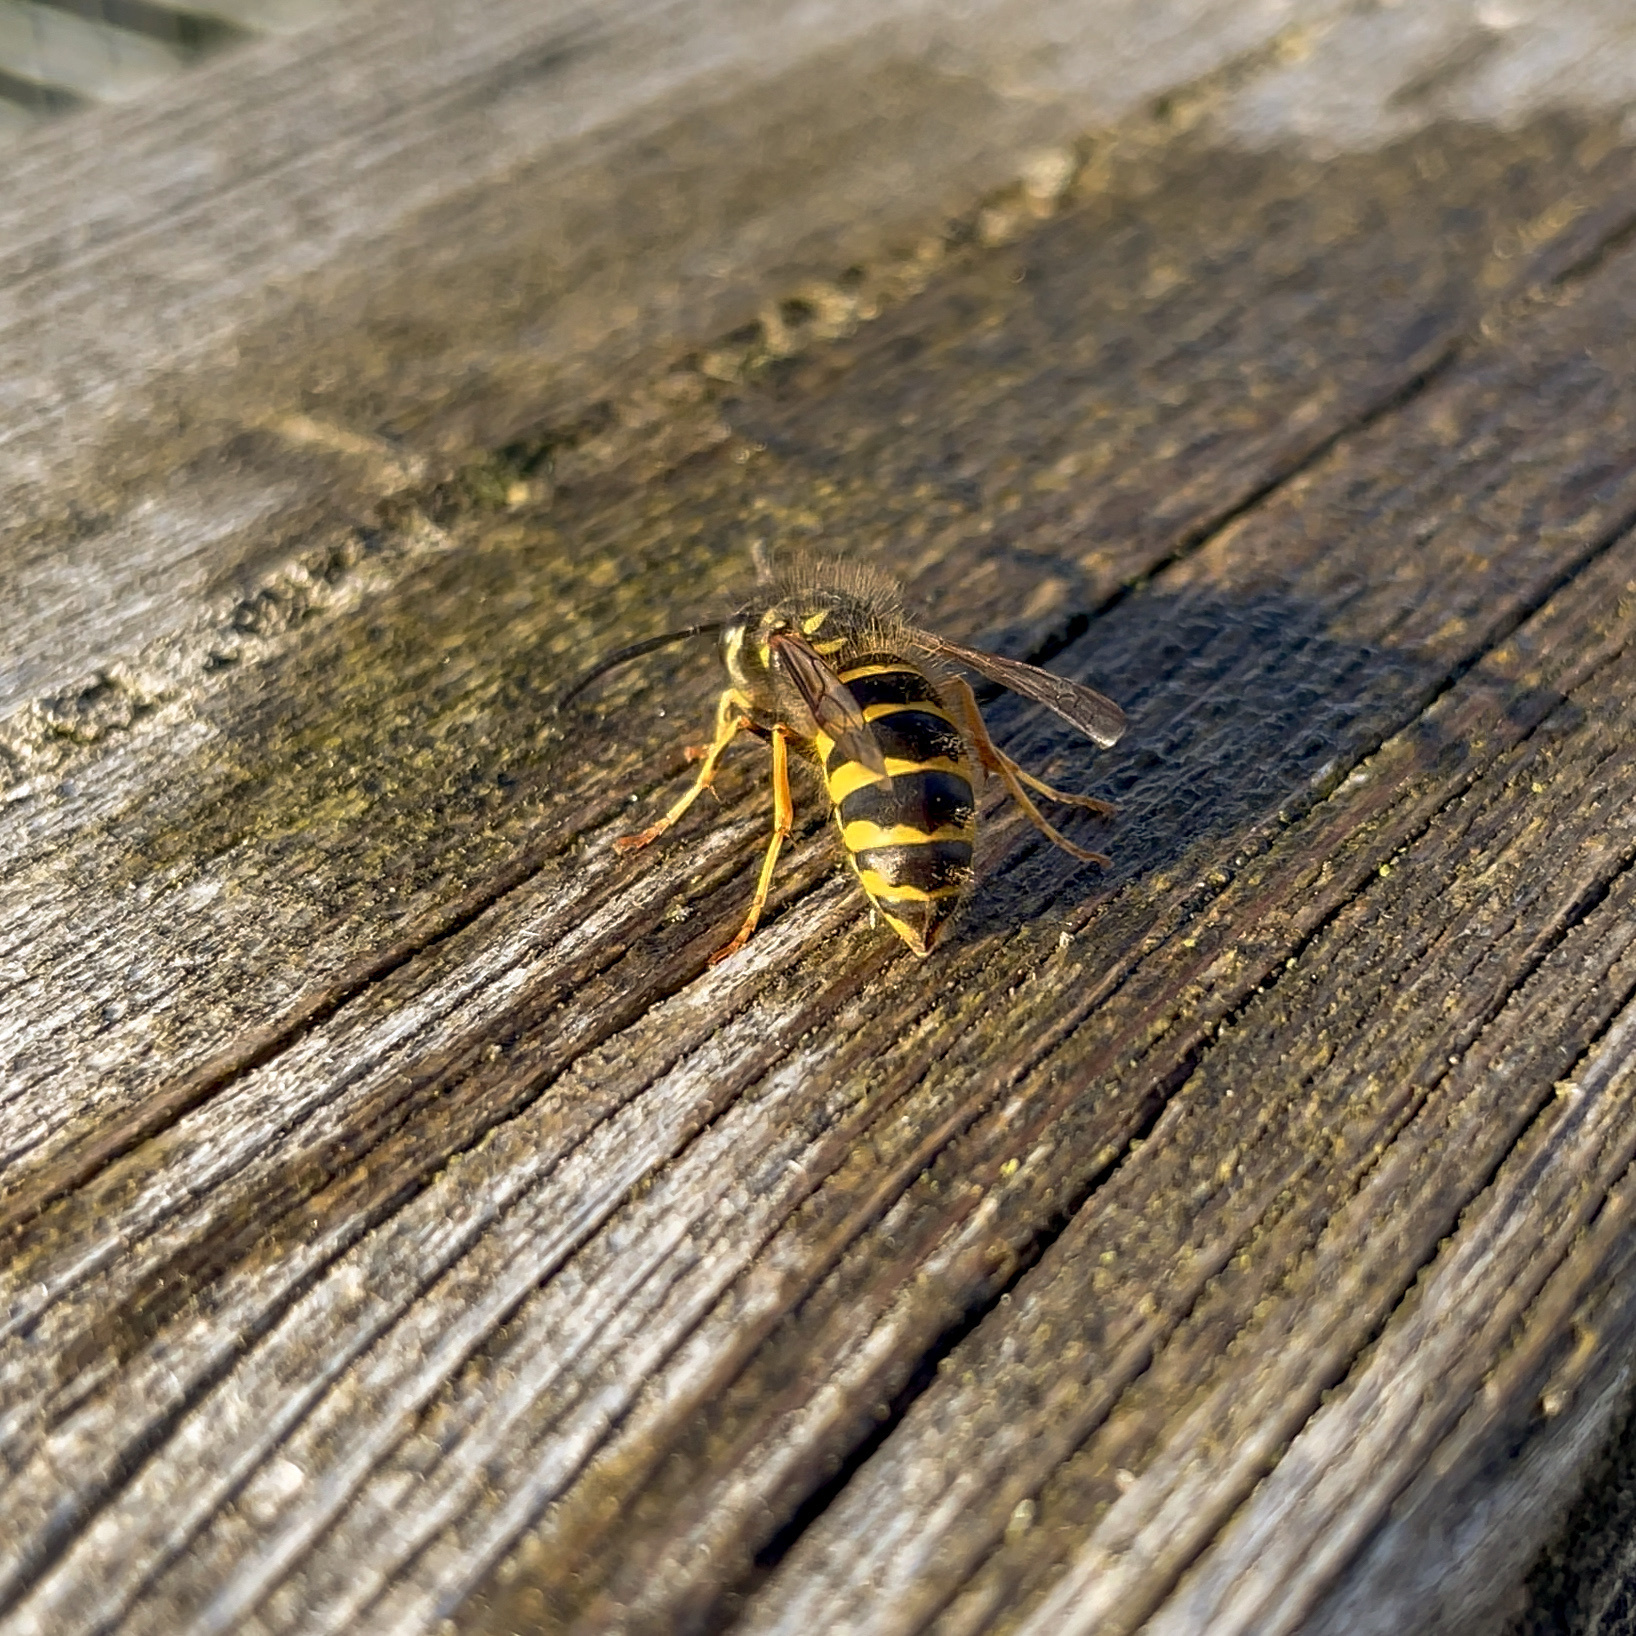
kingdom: Animalia
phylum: Arthropoda
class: Insecta
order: Hymenoptera
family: Vespidae
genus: Vespula
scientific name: Vespula vulgaris
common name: Common wasp
